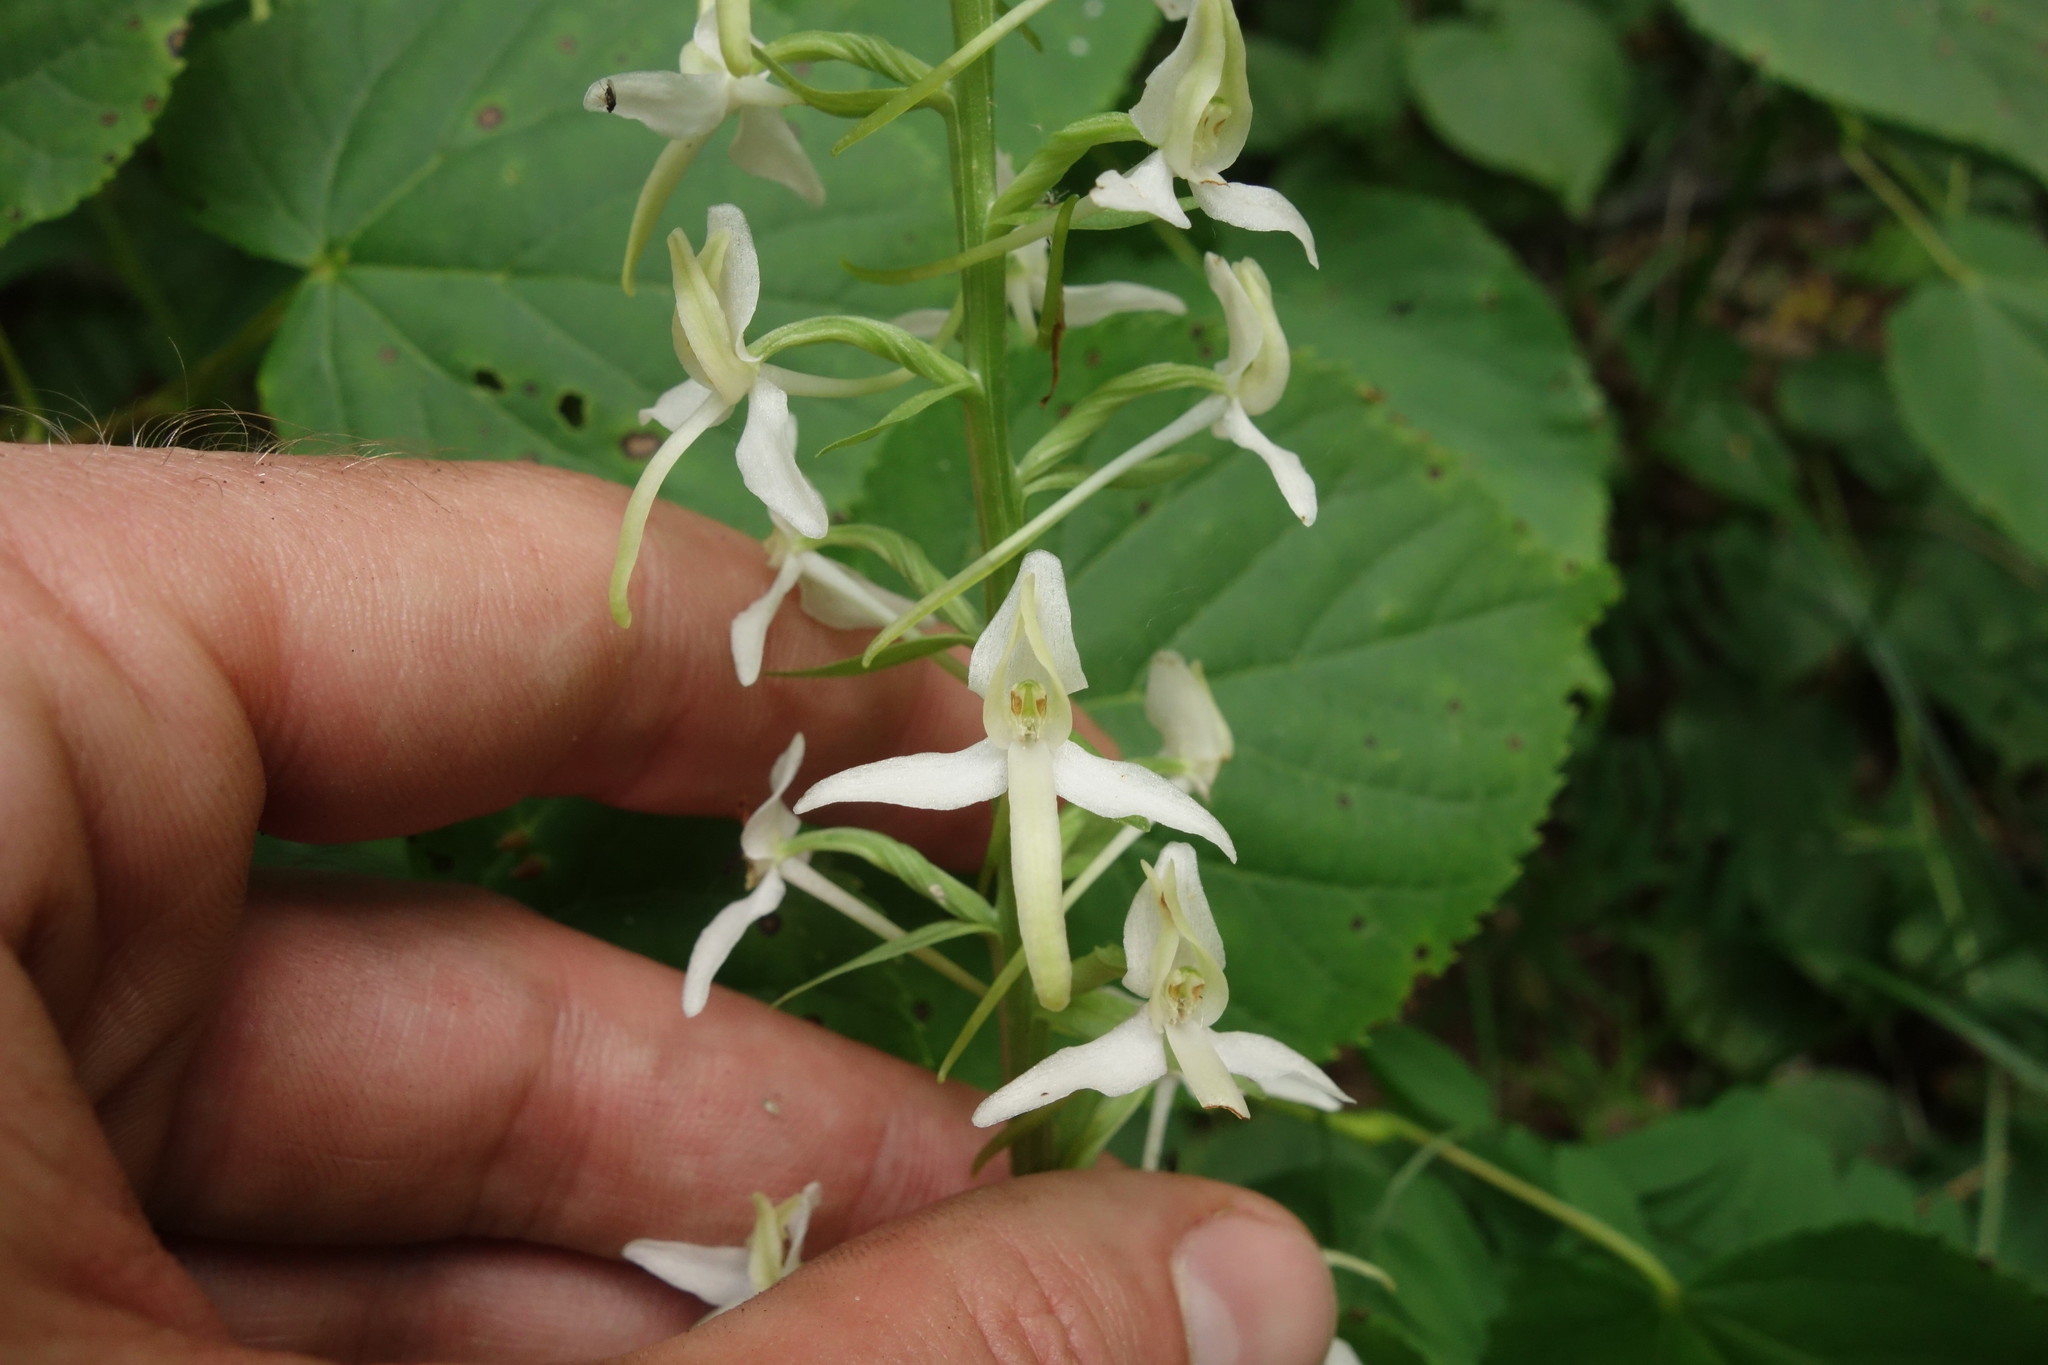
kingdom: Plantae
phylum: Tracheophyta
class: Liliopsida
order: Asparagales
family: Orchidaceae
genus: Platanthera
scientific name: Platanthera bifolia
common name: Lesser butterfly-orchid
